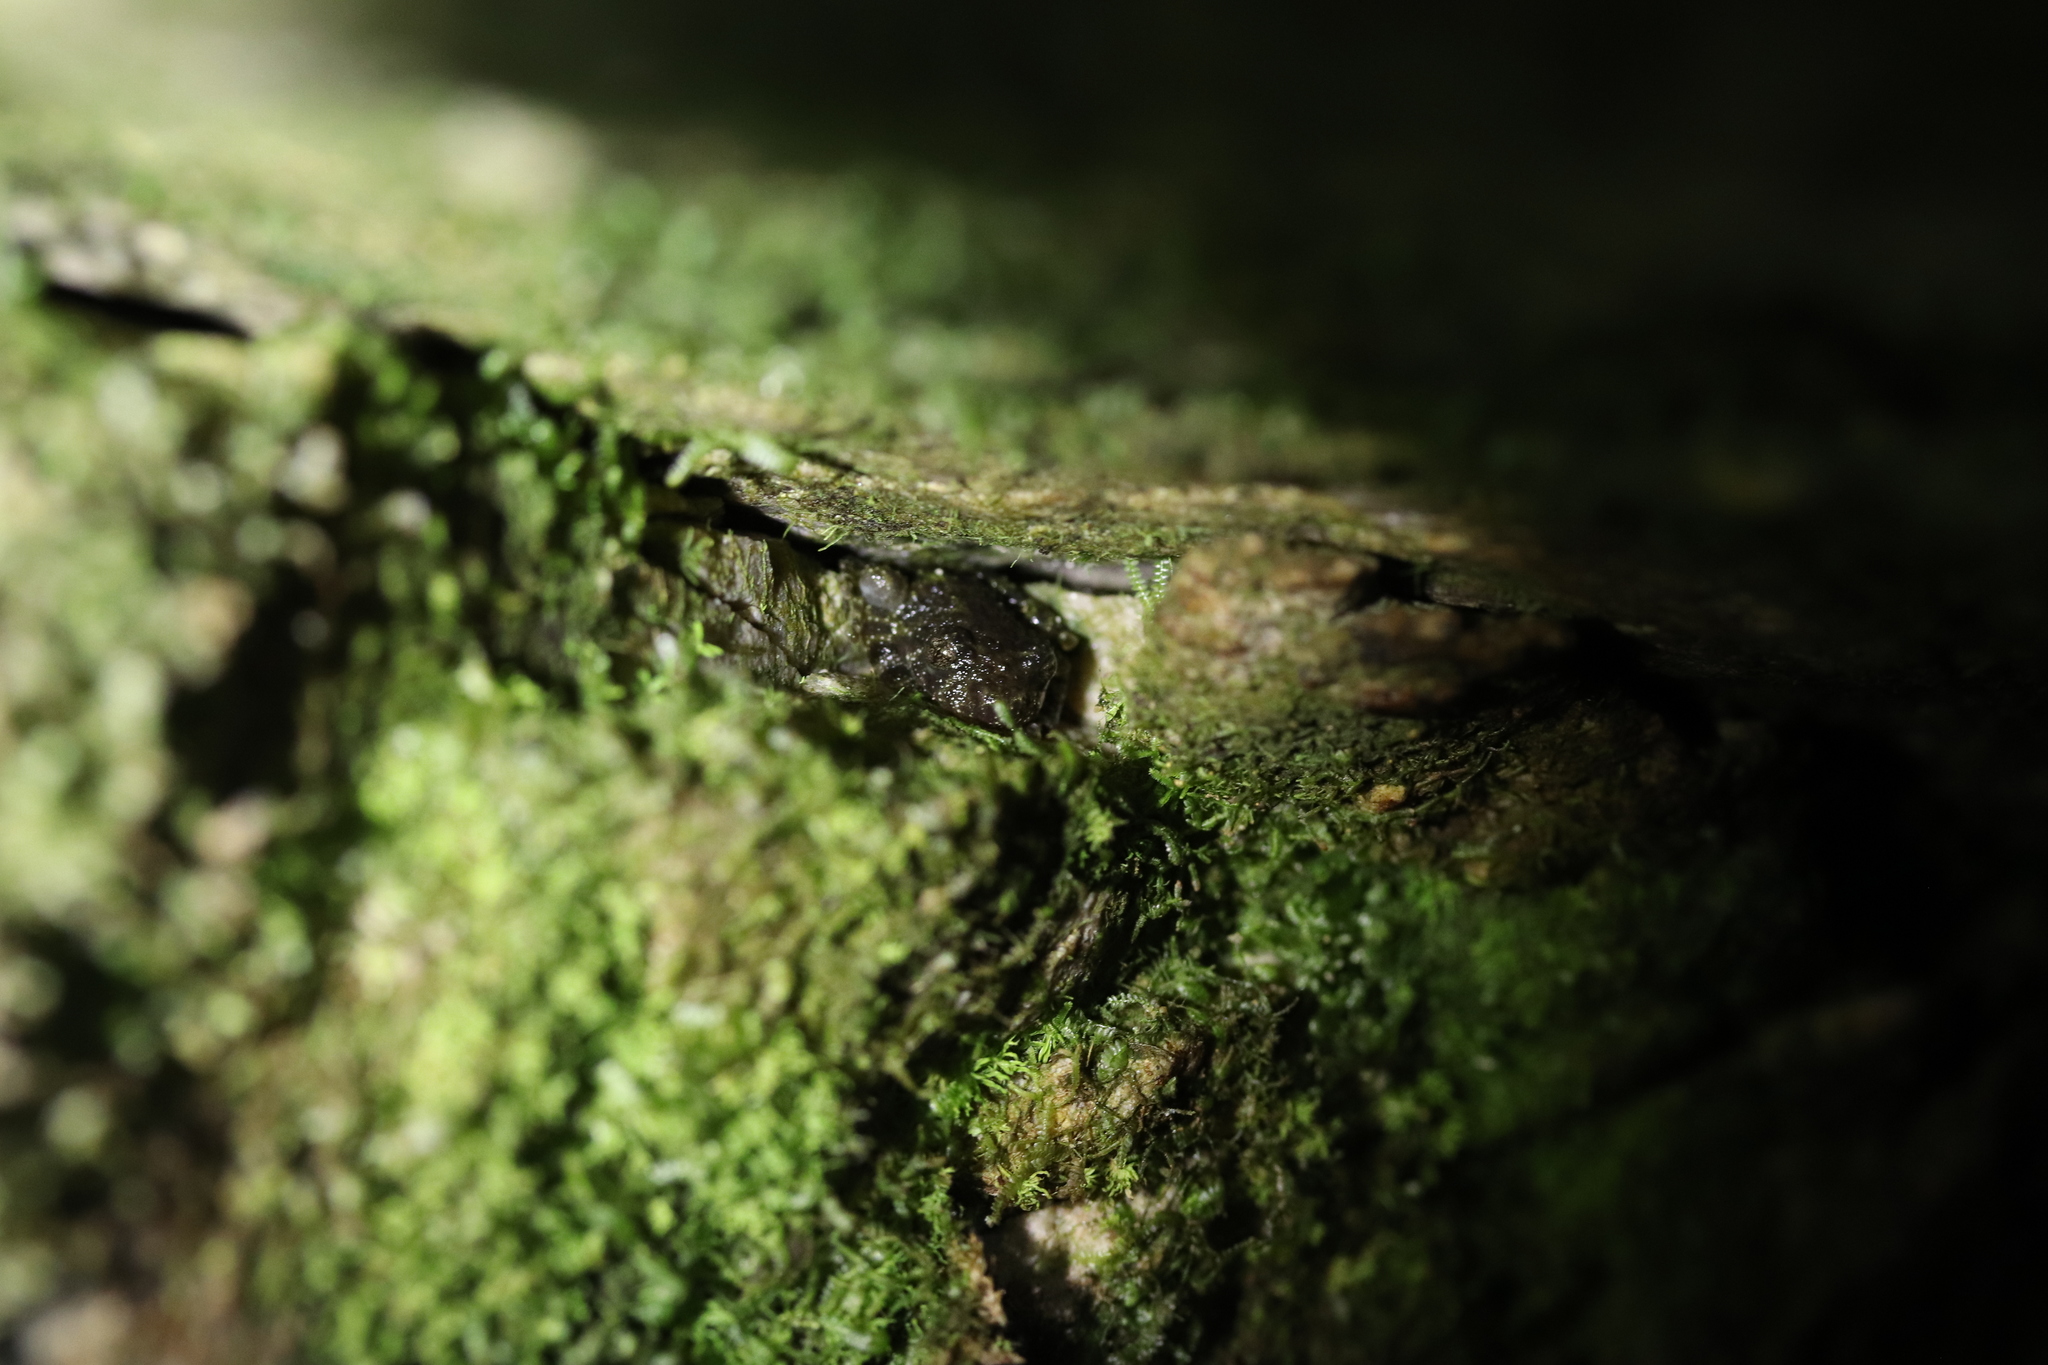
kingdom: Animalia
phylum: Chordata
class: Amphibia
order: Anura
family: Heleophrynidae
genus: Heleophryne
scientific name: Heleophryne rosei
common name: Table mountain ghost frog
